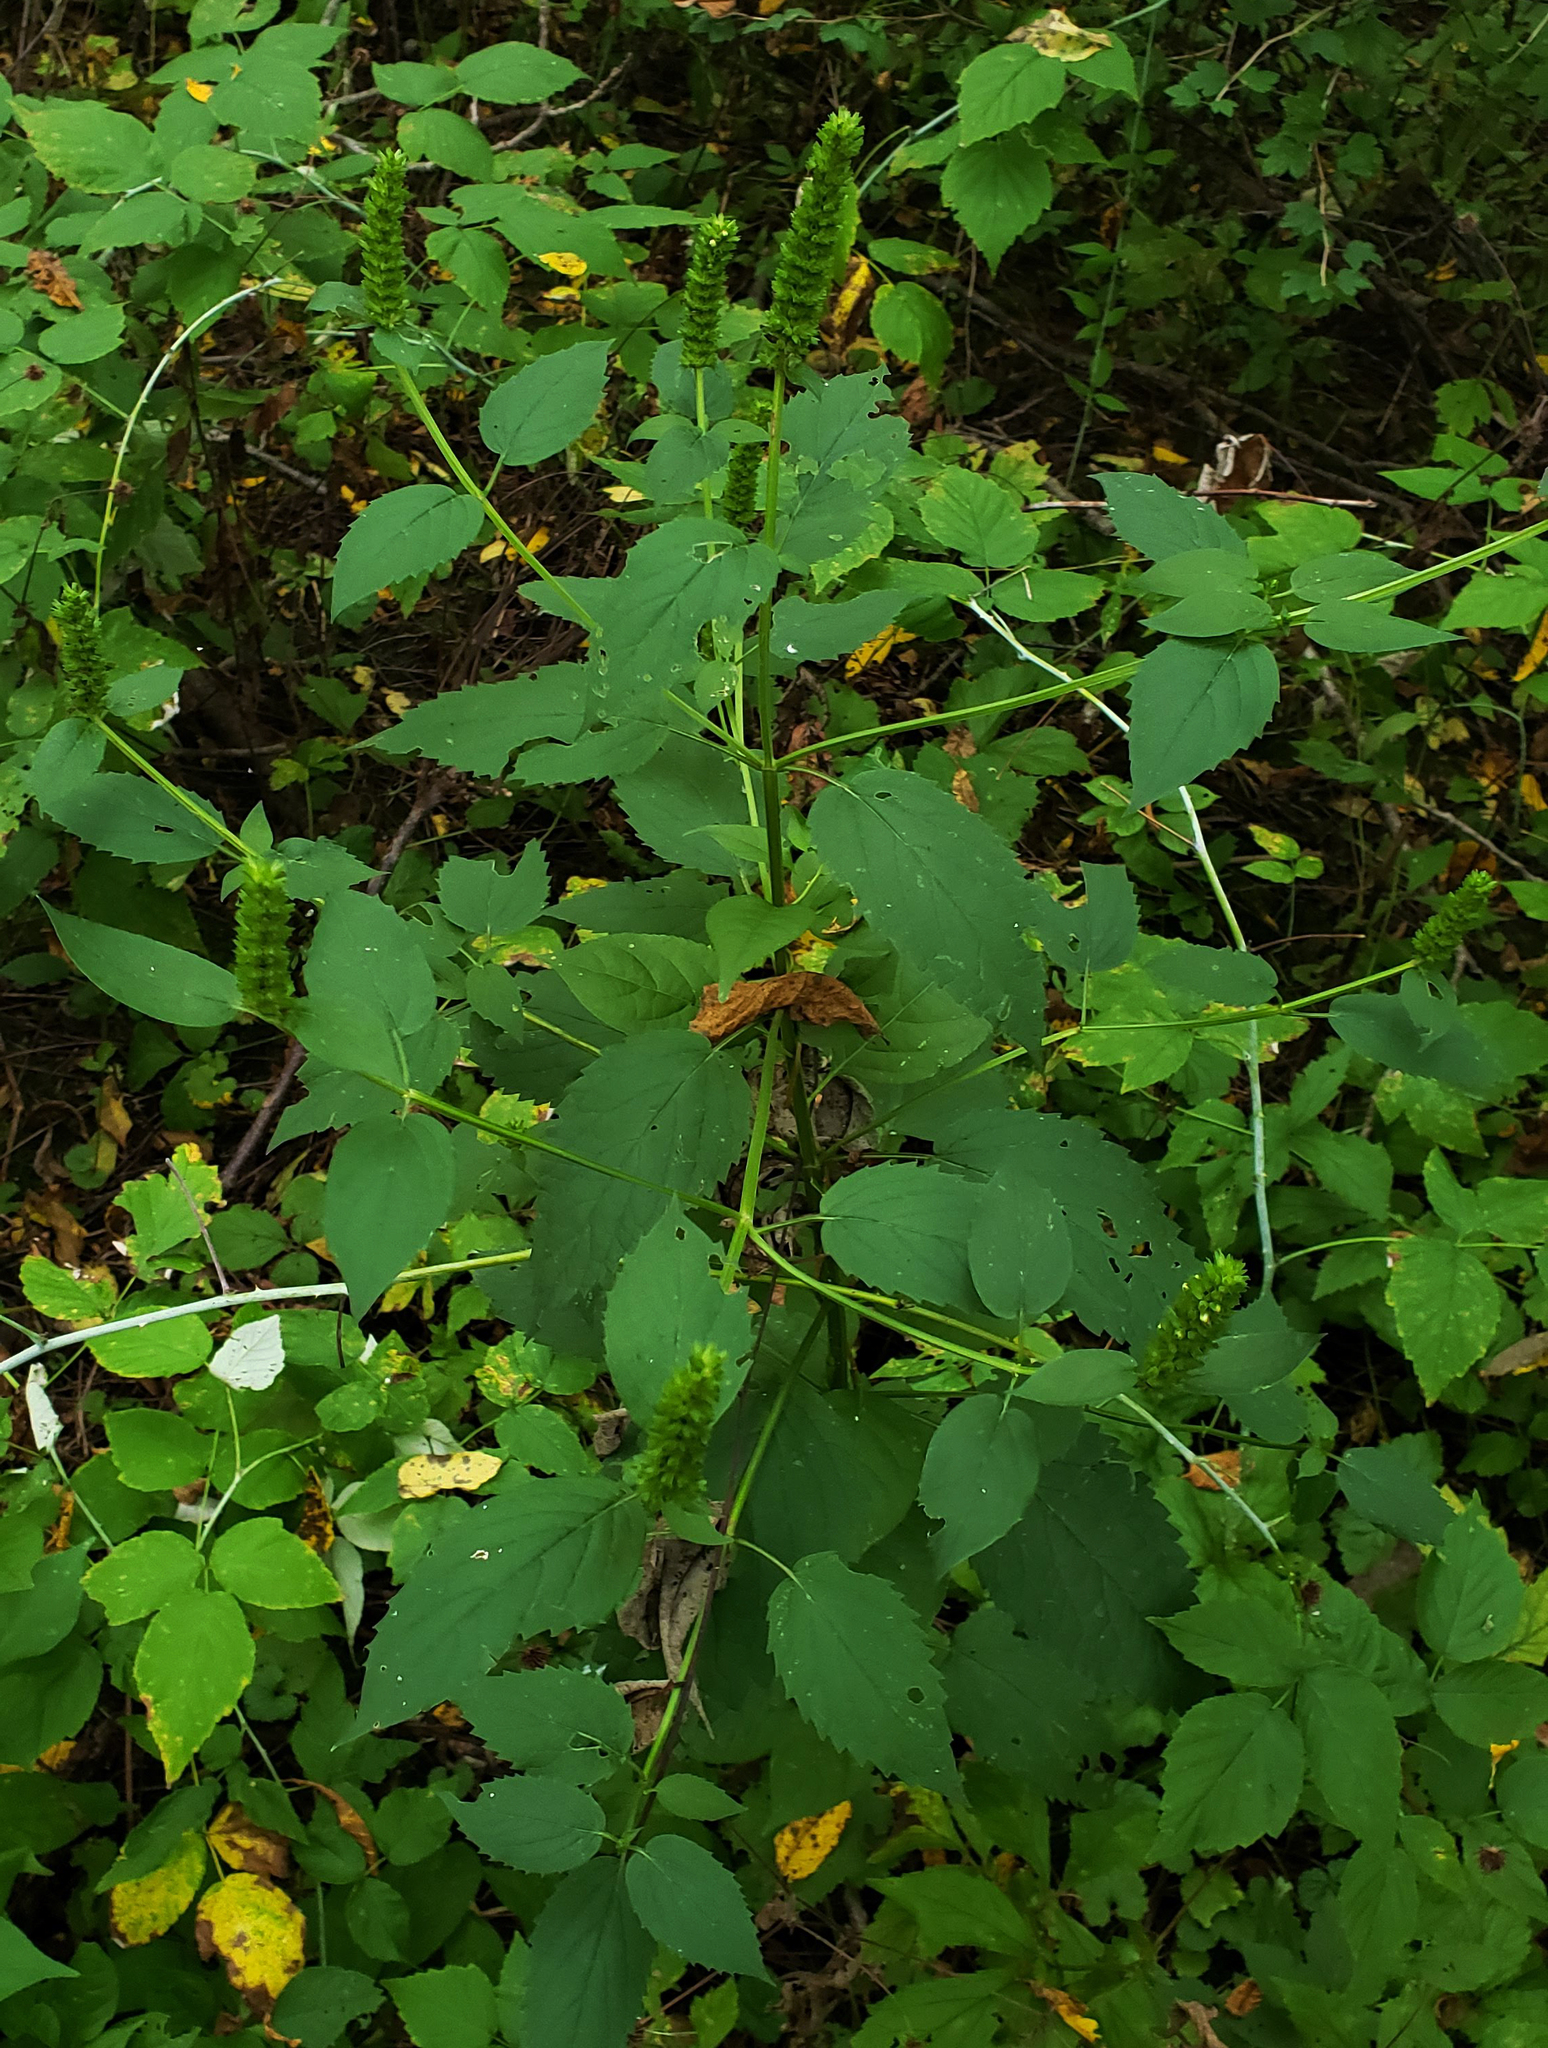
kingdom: Plantae
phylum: Tracheophyta
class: Magnoliopsida
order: Lamiales
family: Lamiaceae
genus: Agastache
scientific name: Agastache nepetoides
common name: Catnip giant hyssop
